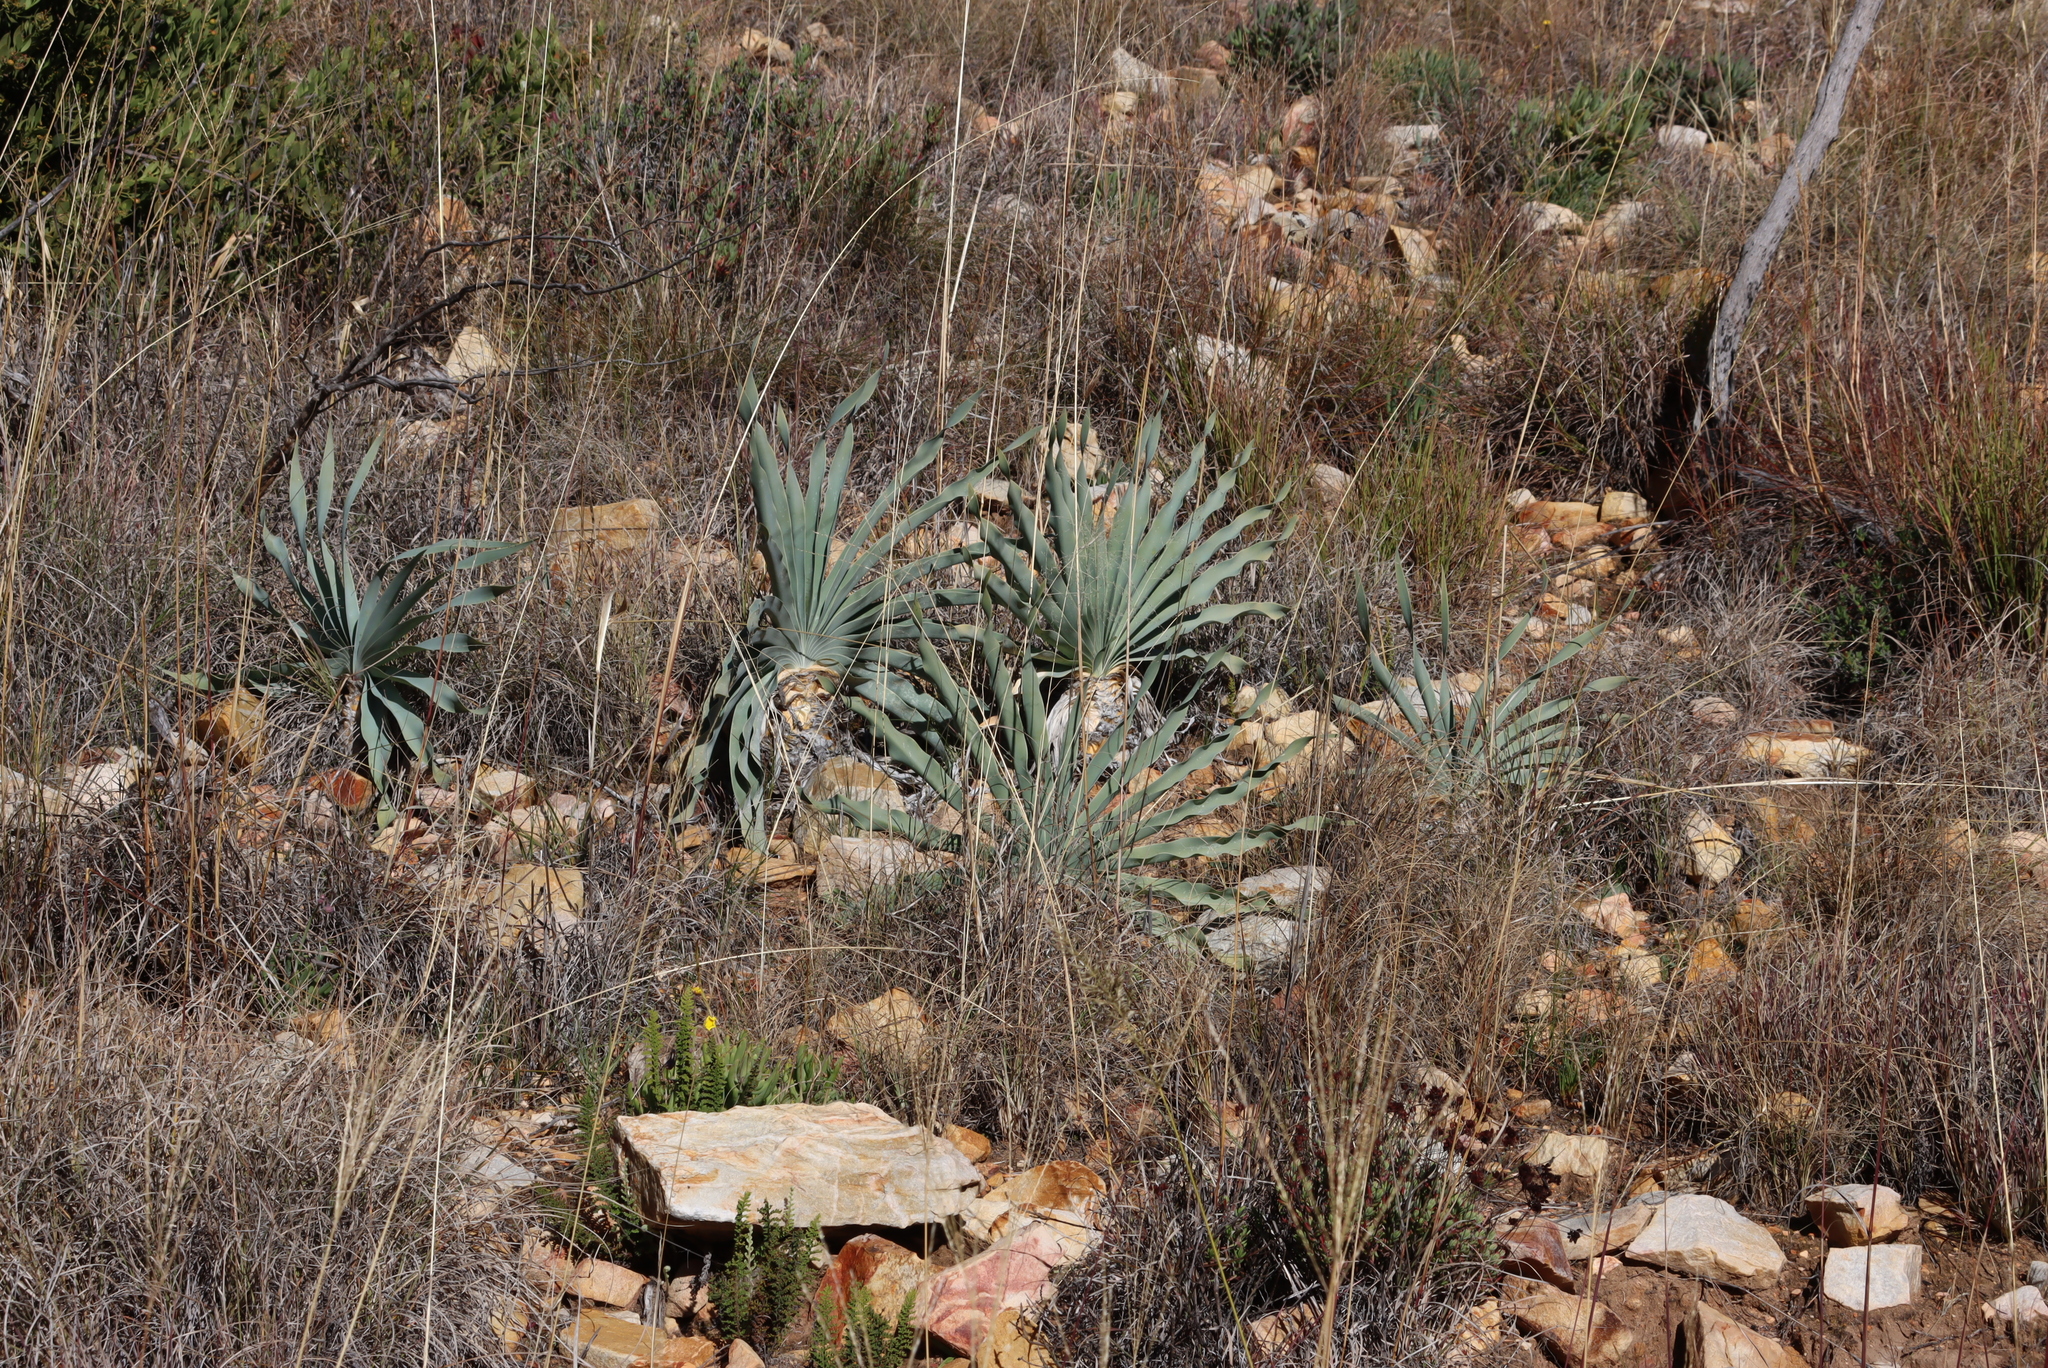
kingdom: Plantae
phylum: Tracheophyta
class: Liliopsida
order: Asparagales
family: Amaryllidaceae
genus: Boophone
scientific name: Boophone disticha
